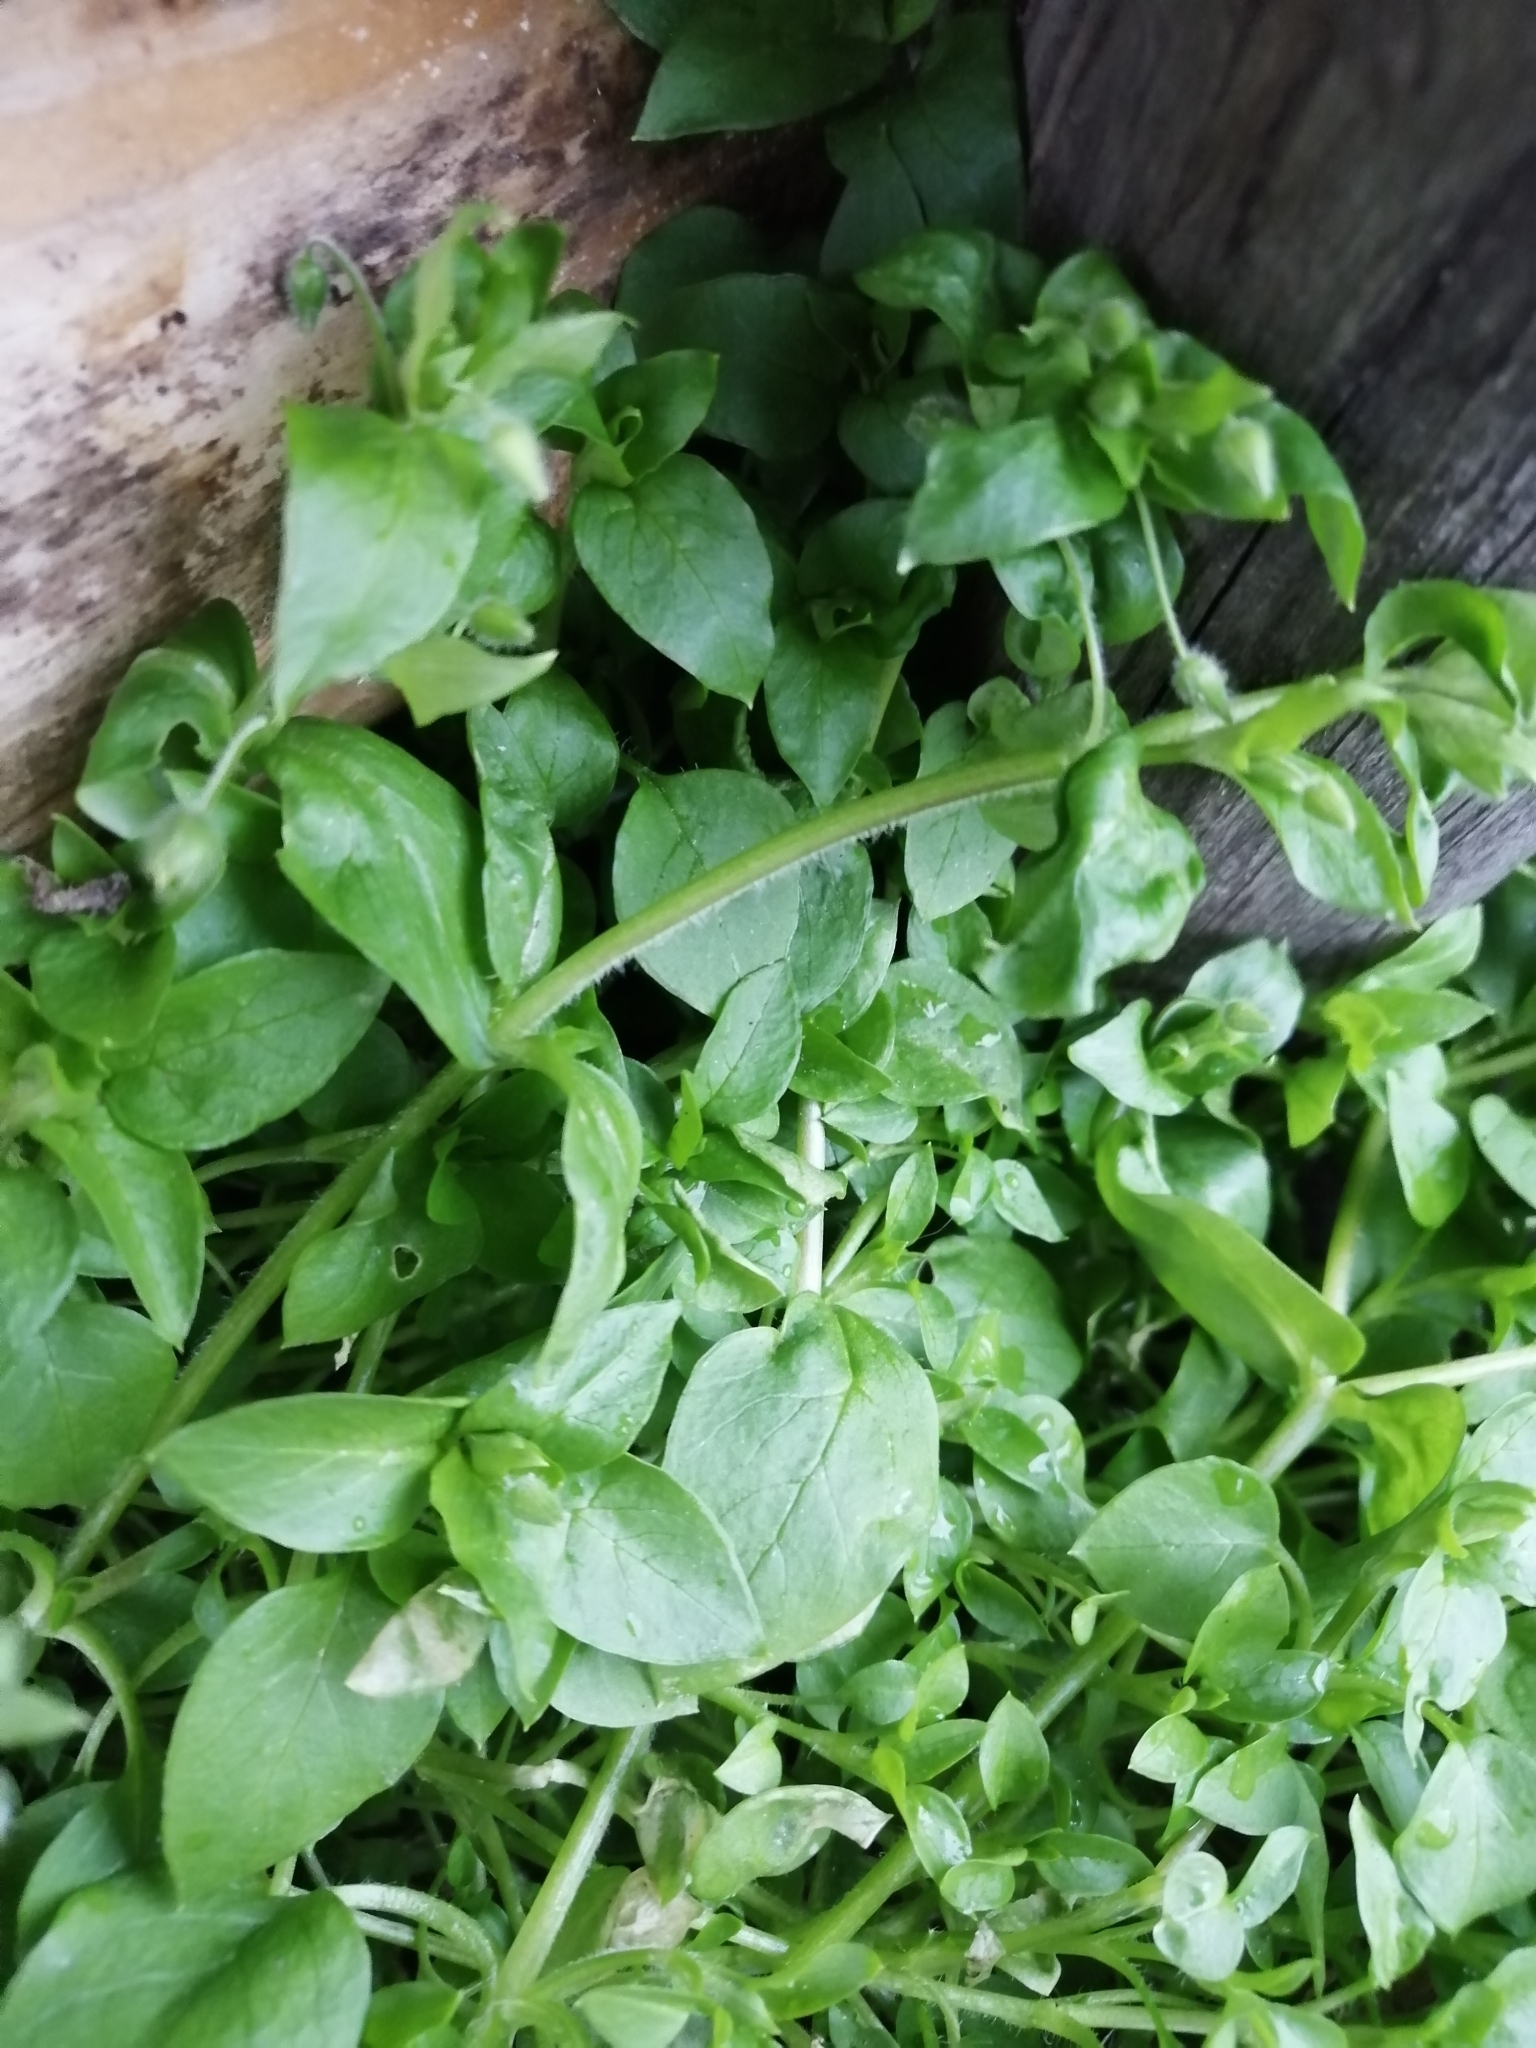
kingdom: Plantae
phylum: Tracheophyta
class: Magnoliopsida
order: Caryophyllales
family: Caryophyllaceae
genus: Stellaria
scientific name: Stellaria media
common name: Common chickweed
